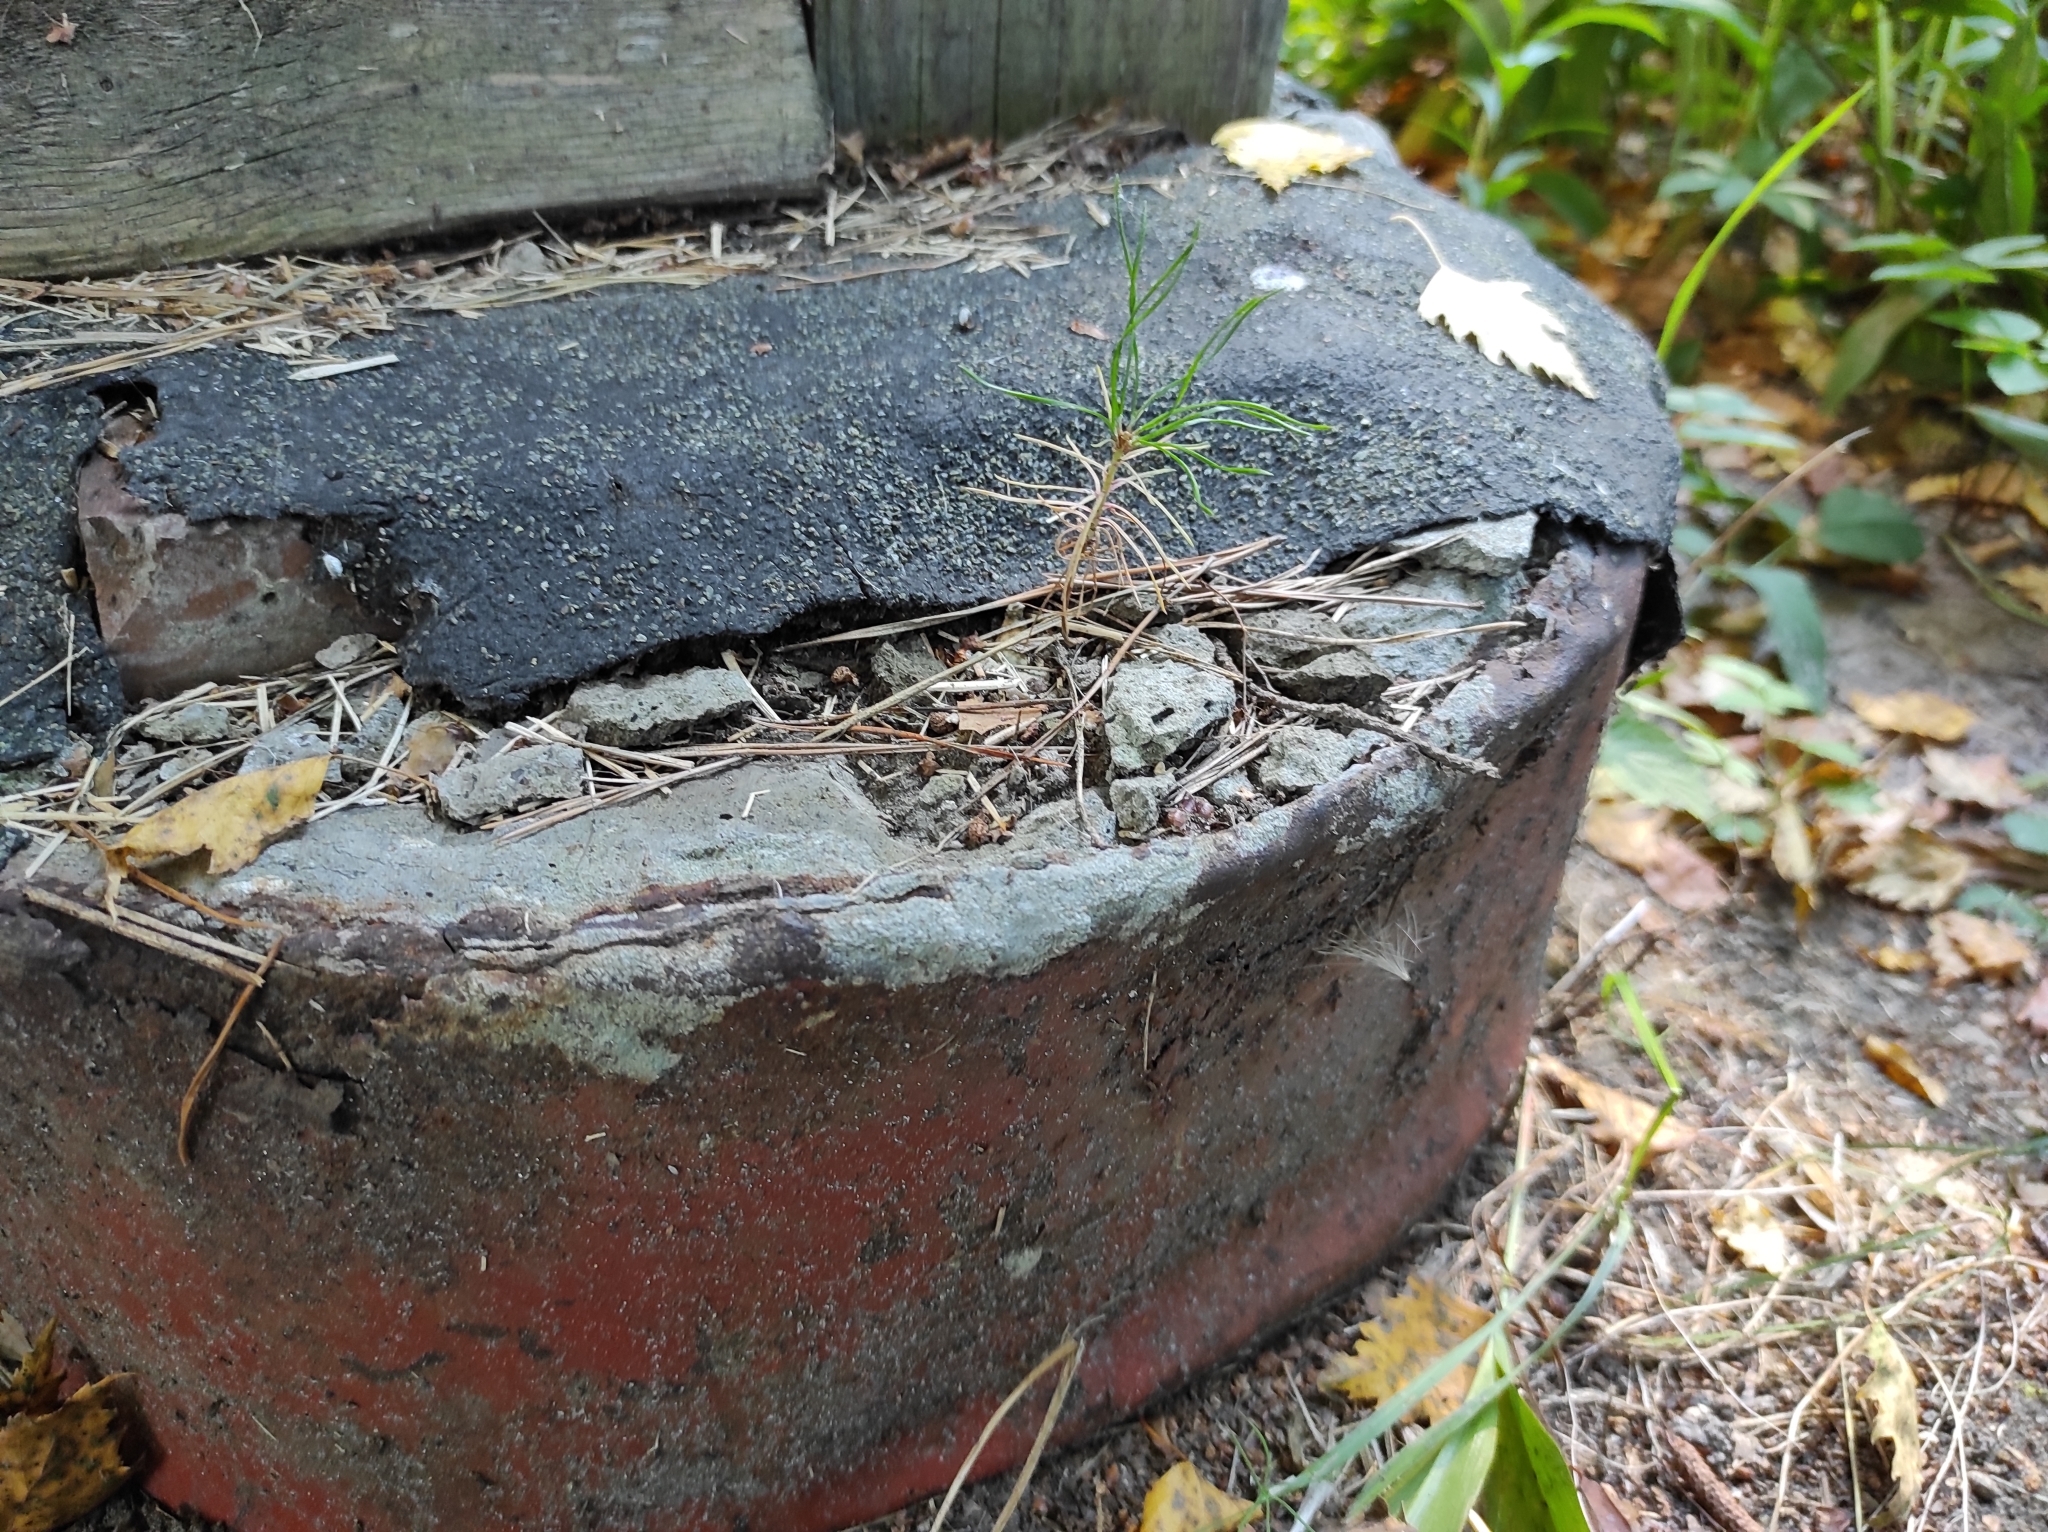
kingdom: Plantae
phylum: Tracheophyta
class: Pinopsida
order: Pinales
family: Pinaceae
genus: Pinus
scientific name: Pinus sylvestris
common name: Scots pine
